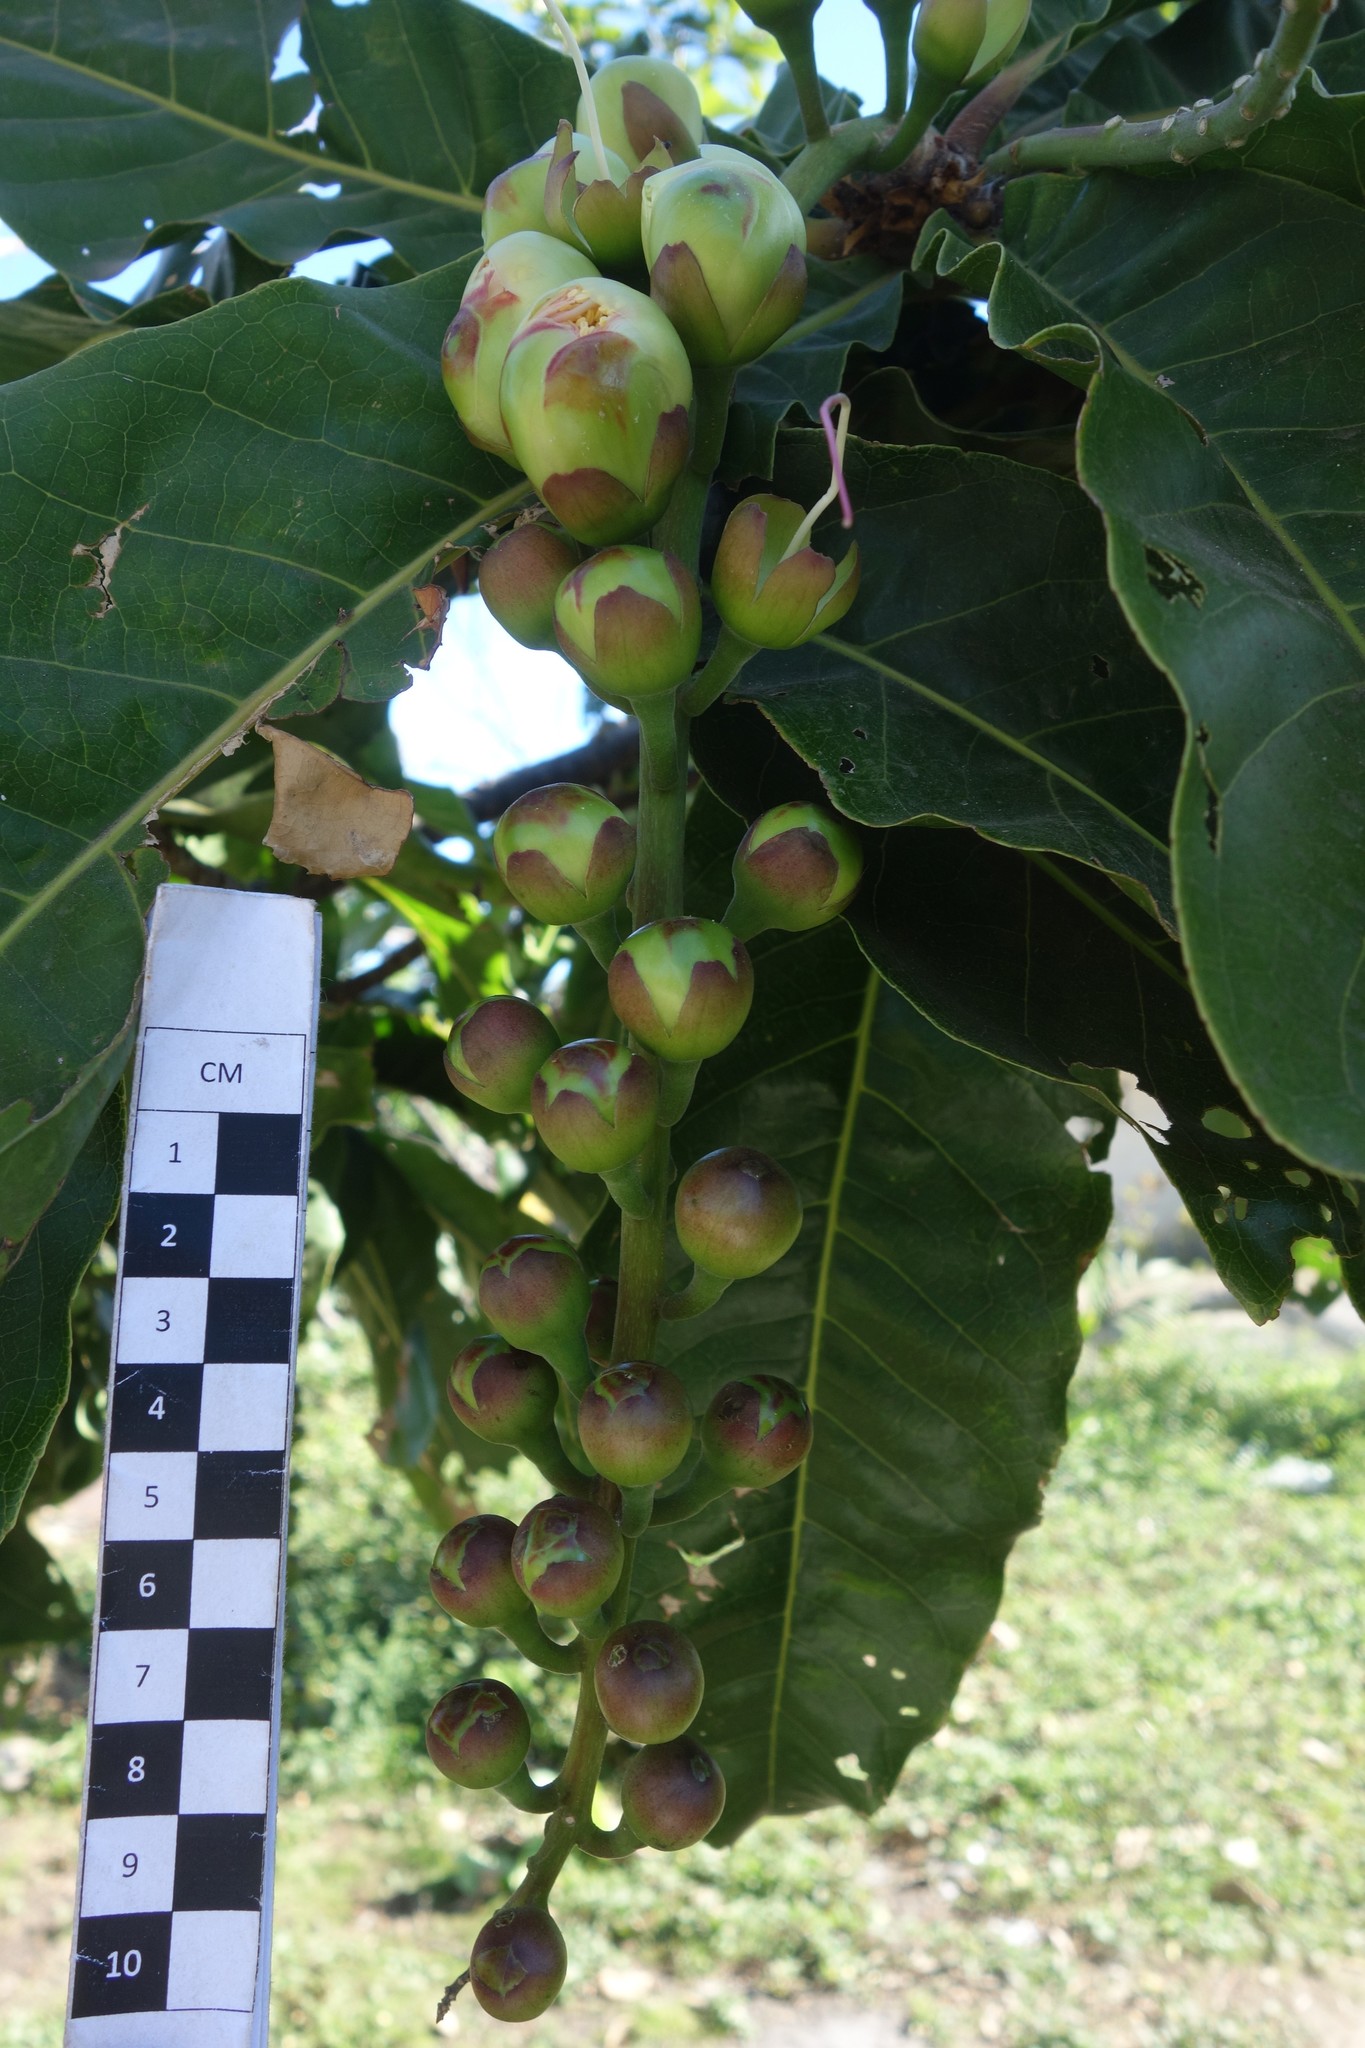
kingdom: Plantae
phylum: Tracheophyta
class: Magnoliopsida
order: Ericales
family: Lecythidaceae
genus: Barringtonia
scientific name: Barringtonia edulis
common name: Cutnut
